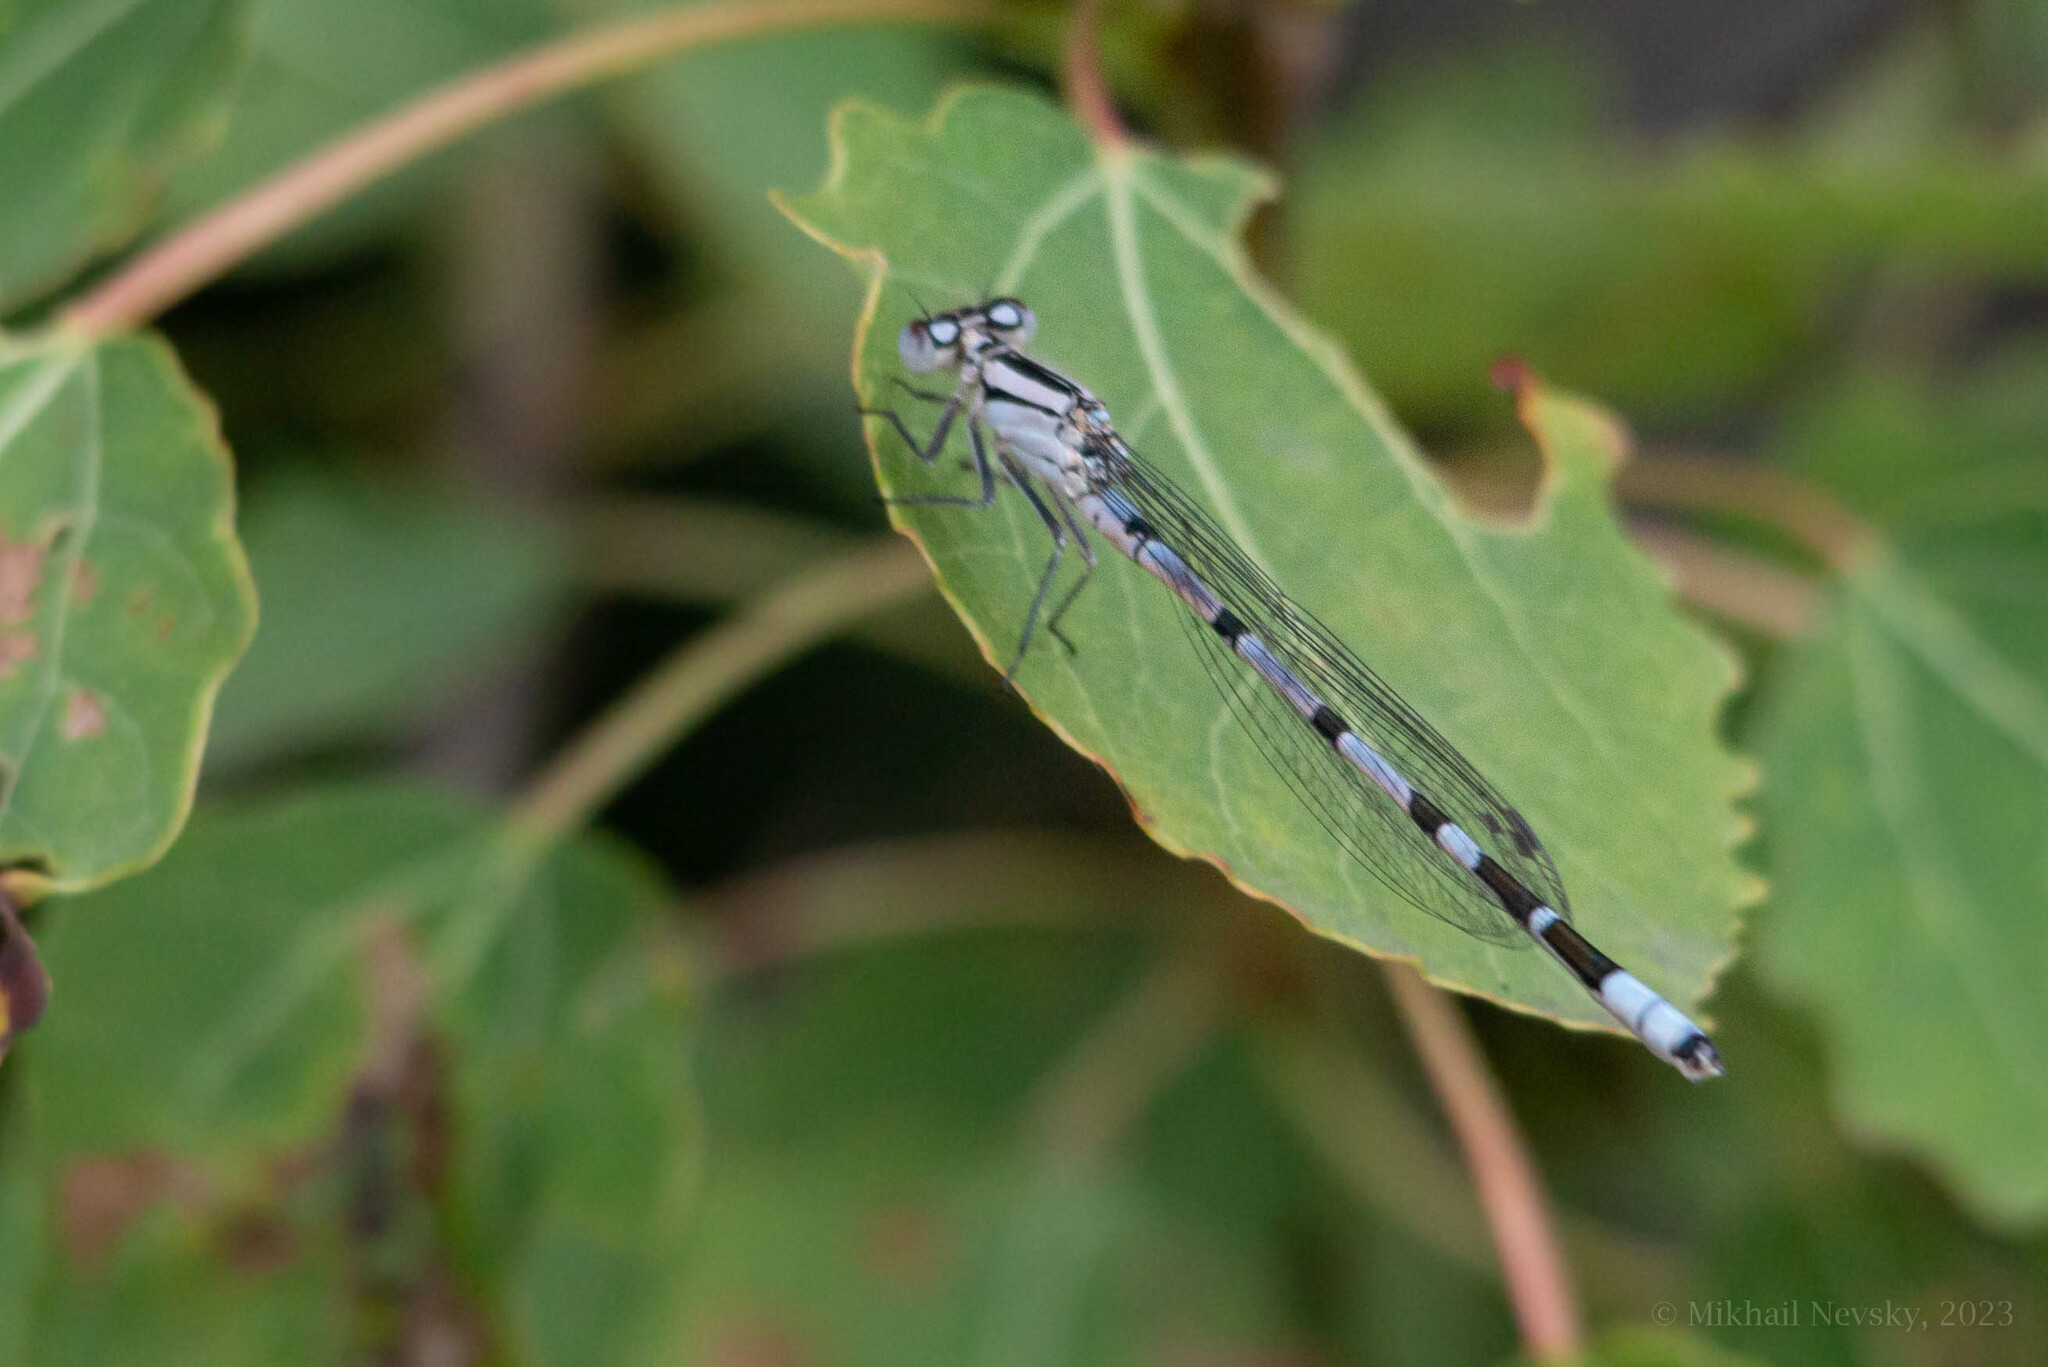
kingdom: Animalia
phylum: Arthropoda
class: Insecta
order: Odonata
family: Coenagrionidae
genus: Enallagma
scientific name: Enallagma cyathigerum
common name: Common blue damselfly
